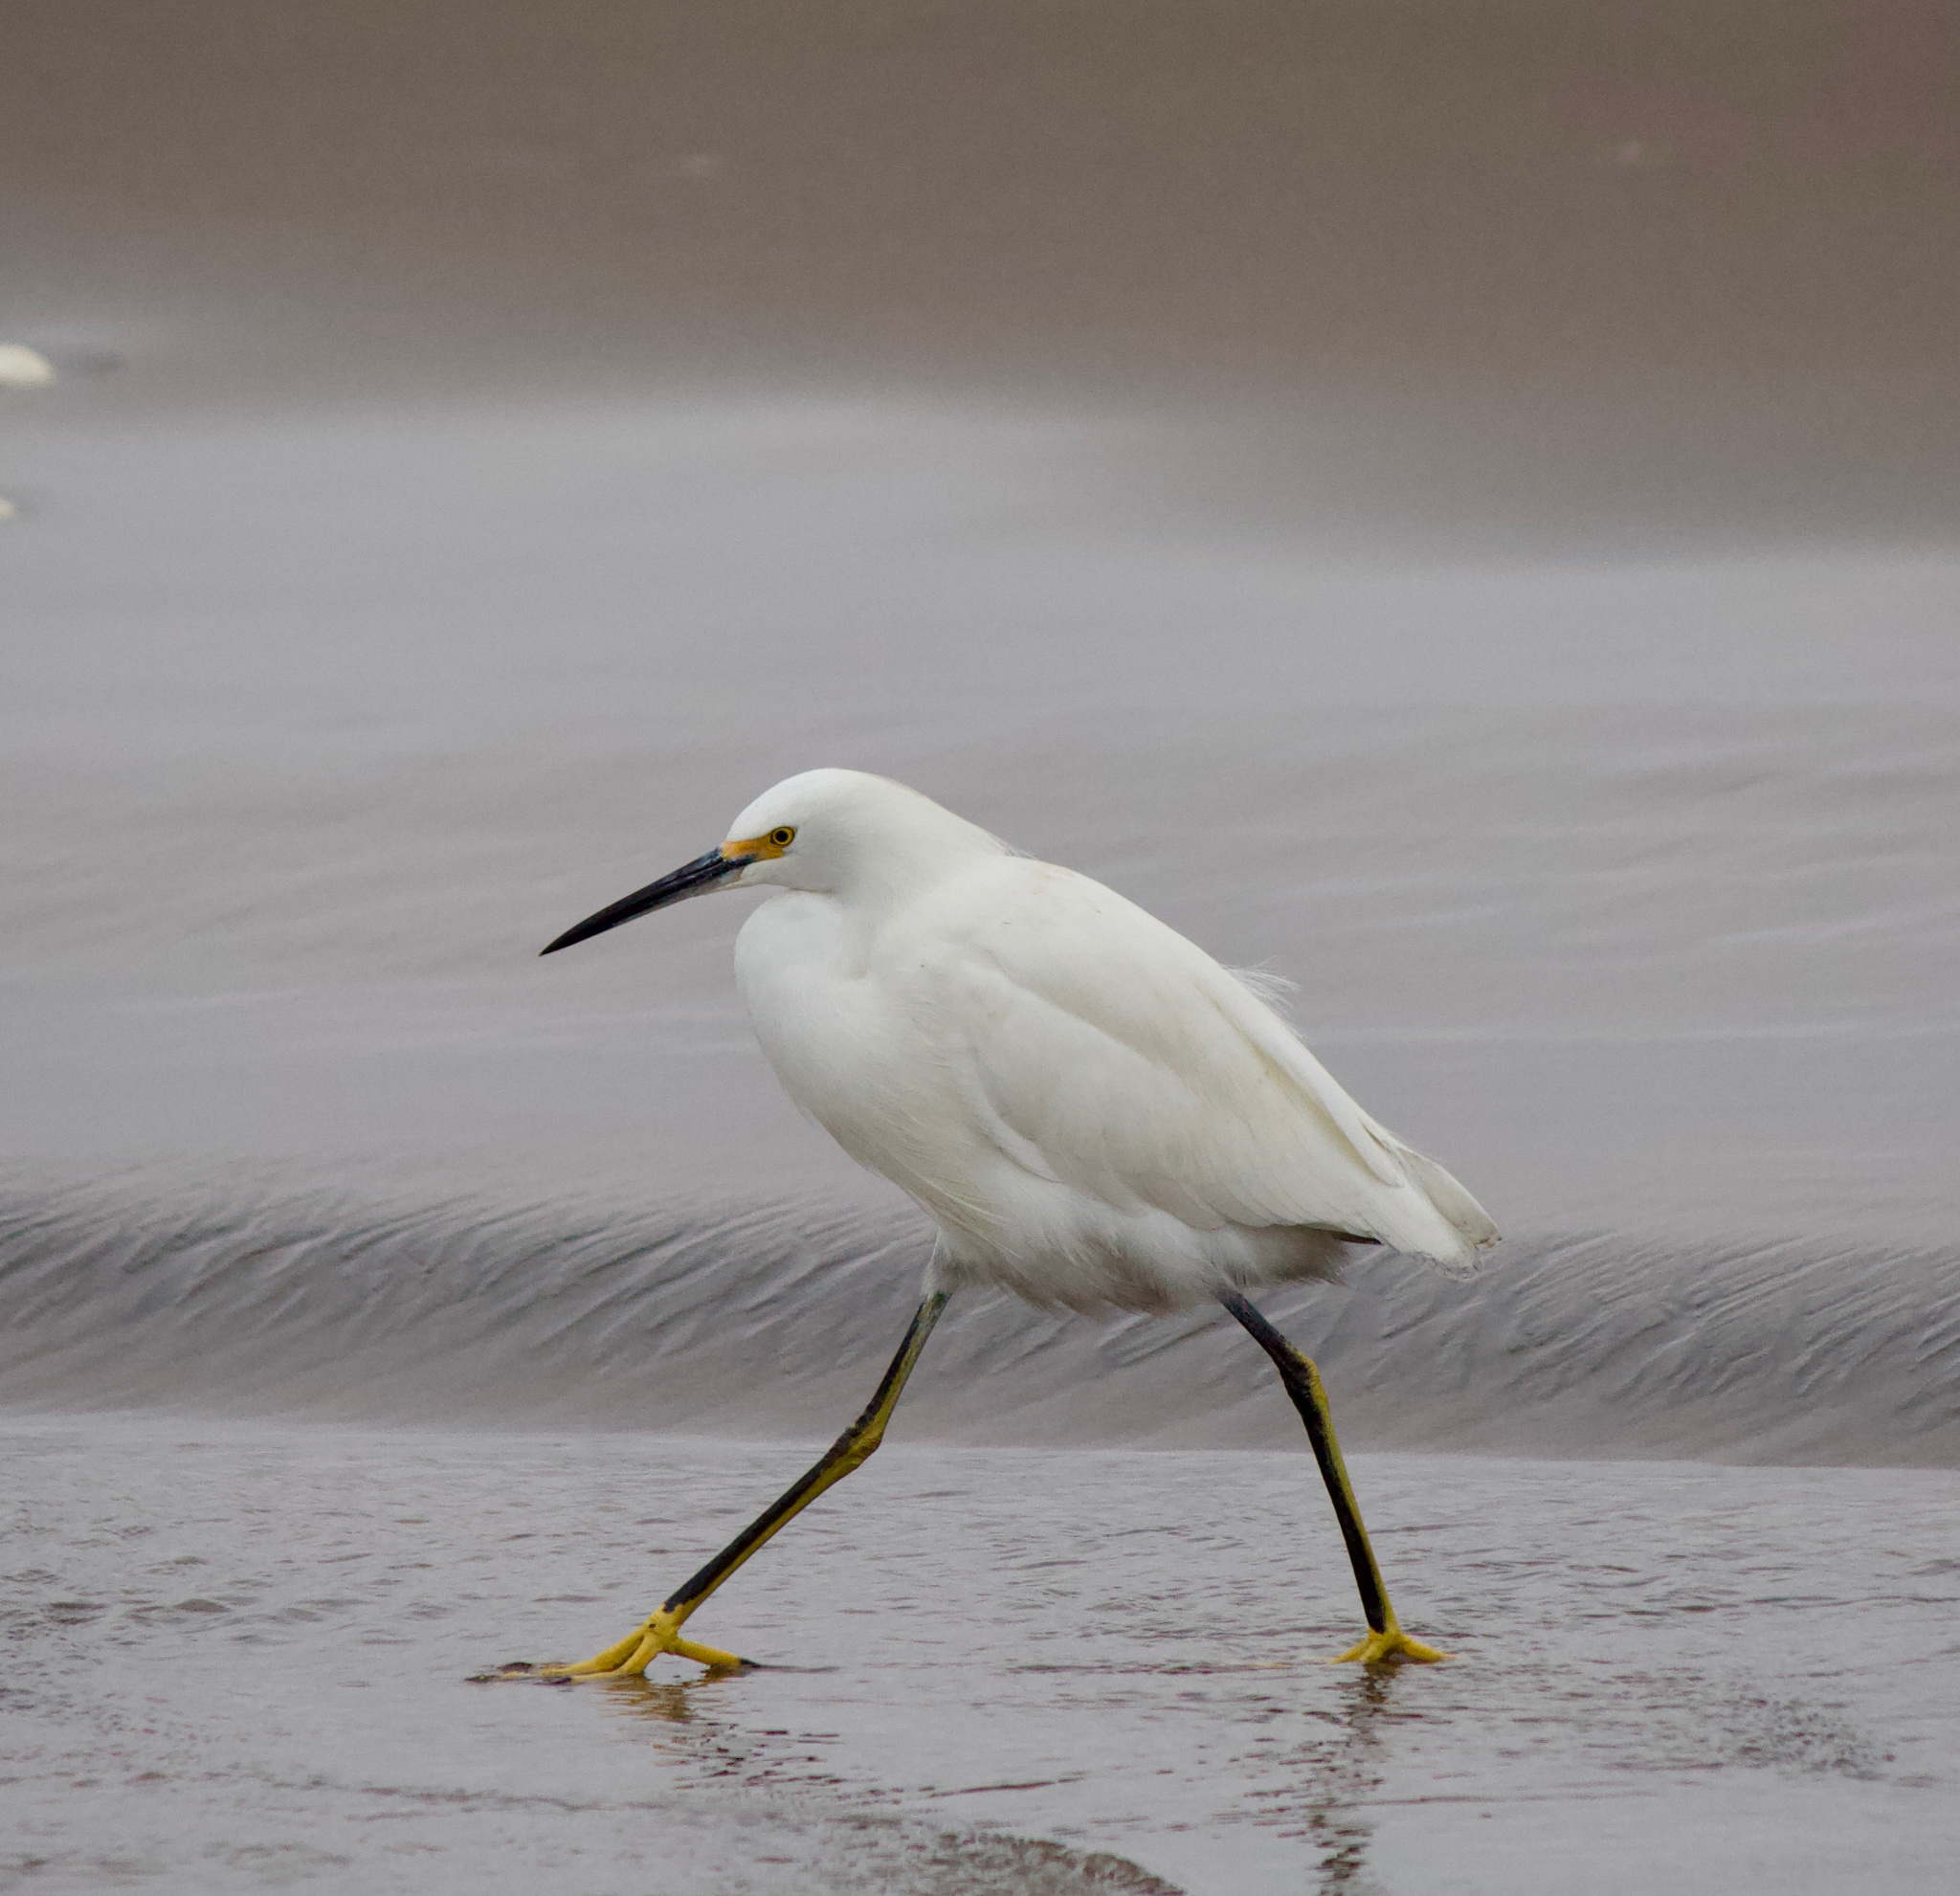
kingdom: Animalia
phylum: Chordata
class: Aves
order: Pelecaniformes
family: Ardeidae
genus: Egretta
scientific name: Egretta thula
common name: Snowy egret
